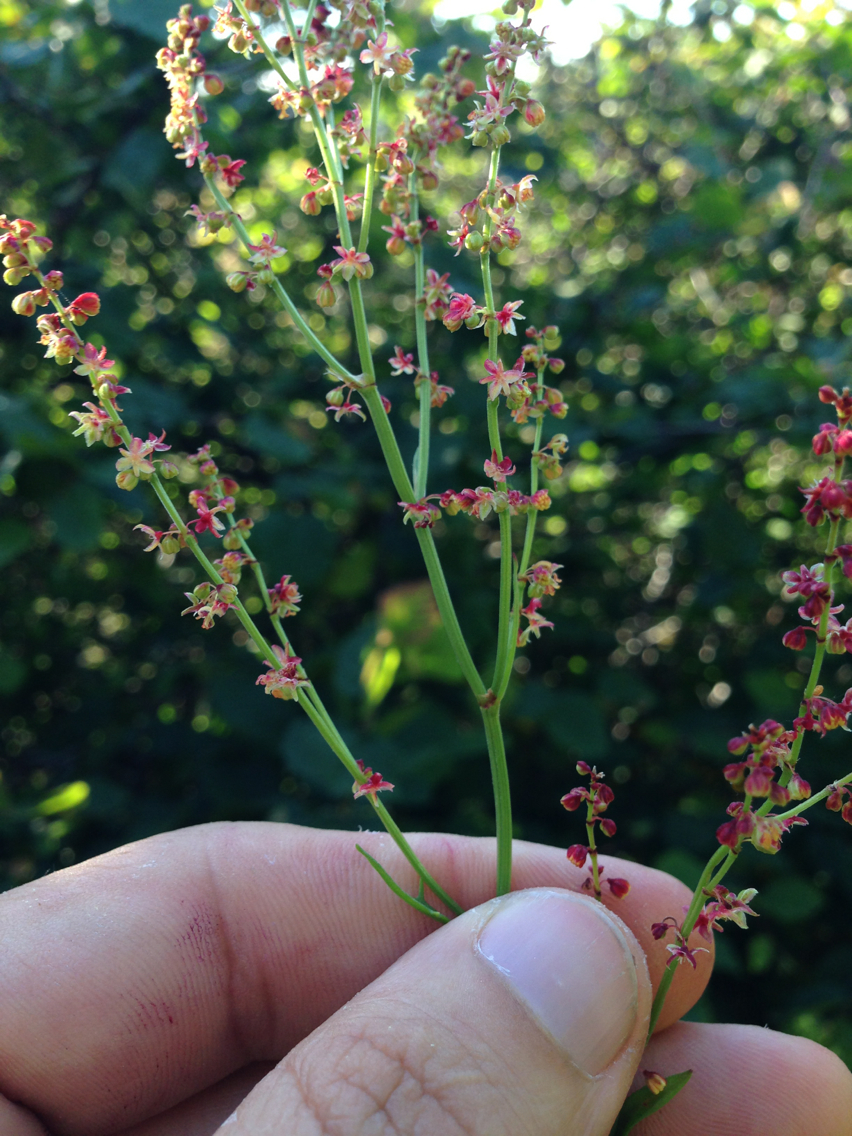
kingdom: Plantae
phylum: Tracheophyta
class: Magnoliopsida
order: Caryophyllales
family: Polygonaceae
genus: Rumex
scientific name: Rumex acetosella
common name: Common sheep sorrel
